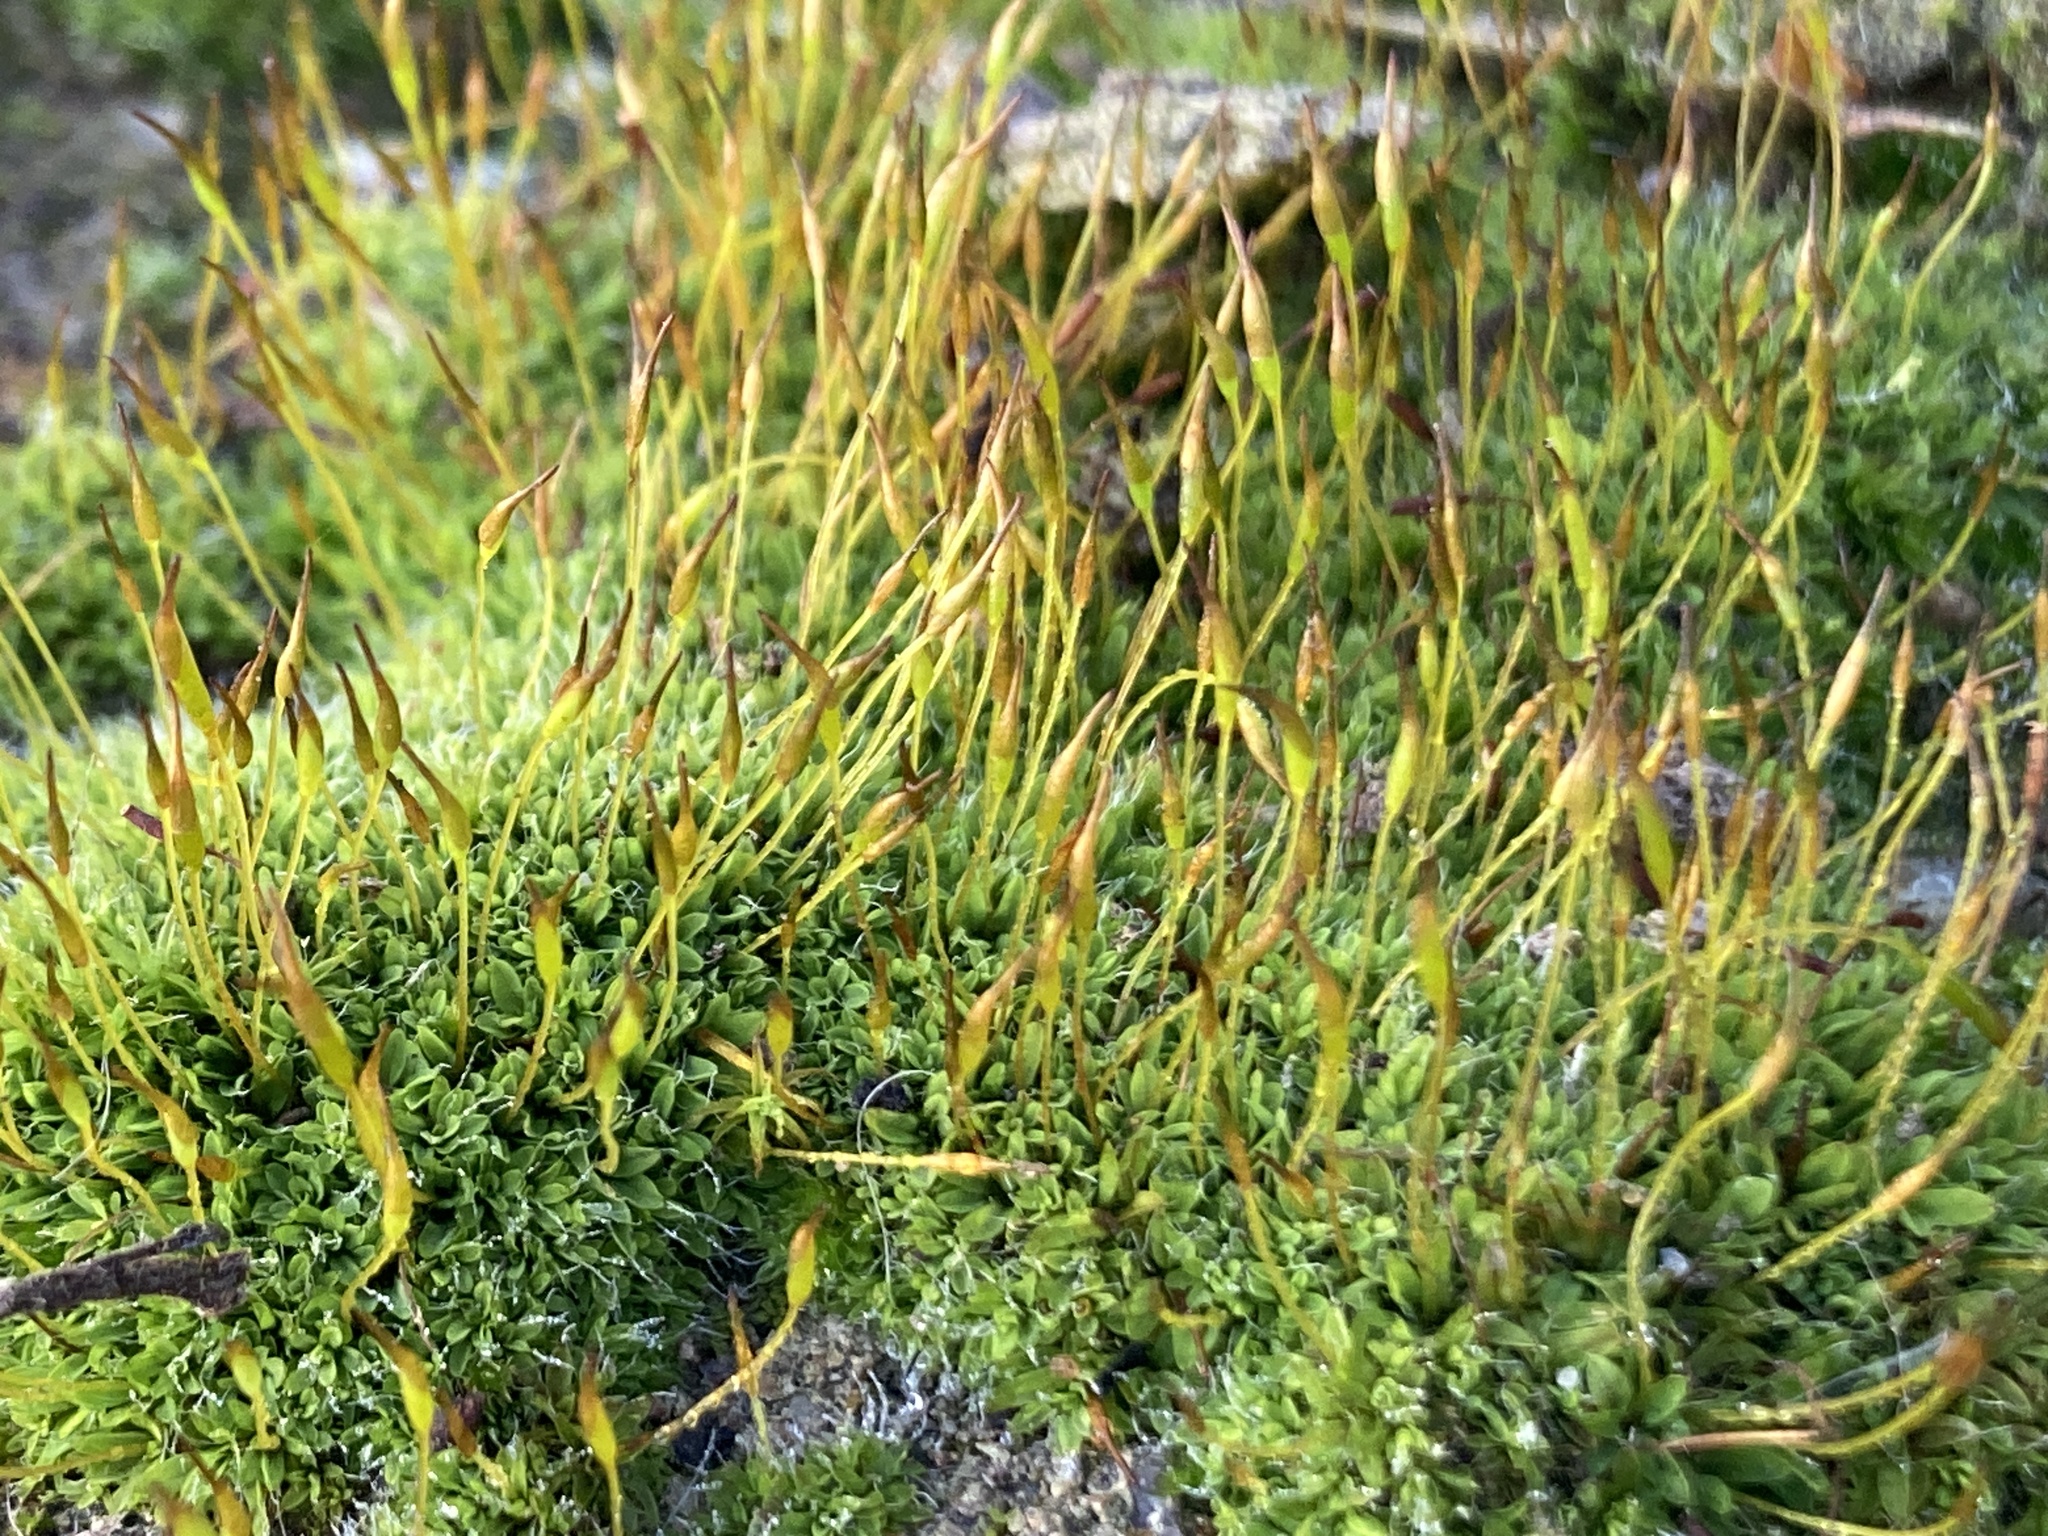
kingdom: Plantae
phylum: Bryophyta
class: Bryopsida
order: Pottiales
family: Pottiaceae
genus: Tortula
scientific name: Tortula muralis
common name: Wall screw-moss
